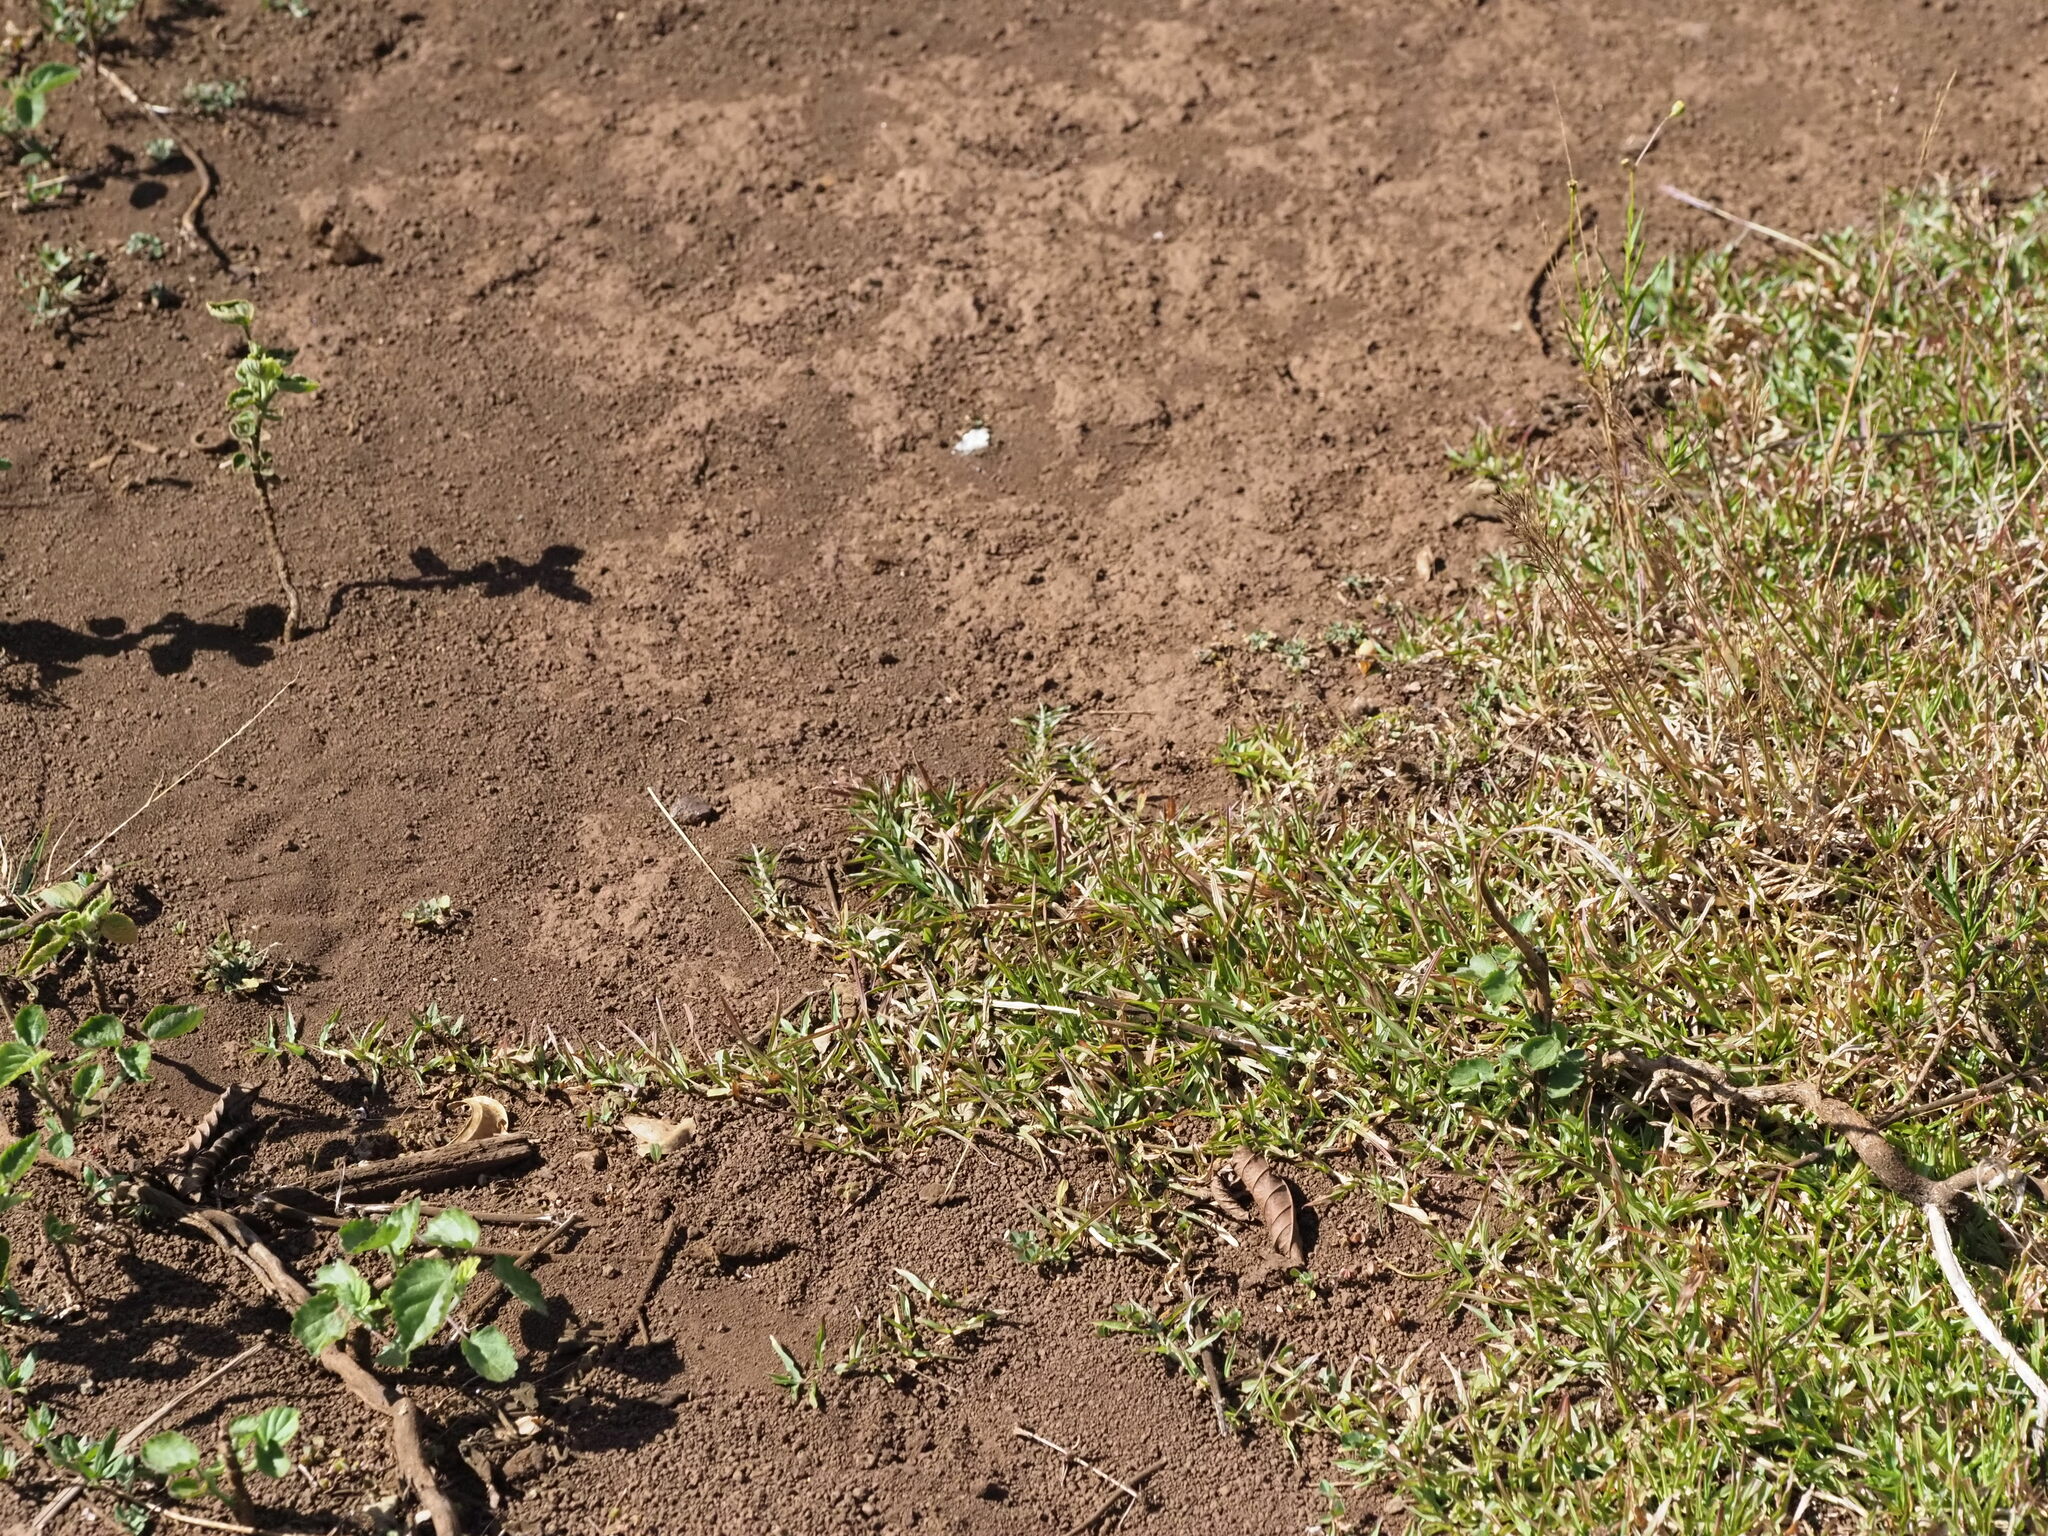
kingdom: Plantae
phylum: Tracheophyta
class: Liliopsida
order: Poales
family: Poaceae
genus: Chrysopogon
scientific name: Chrysopogon aciculatus
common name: Pilipiliula
